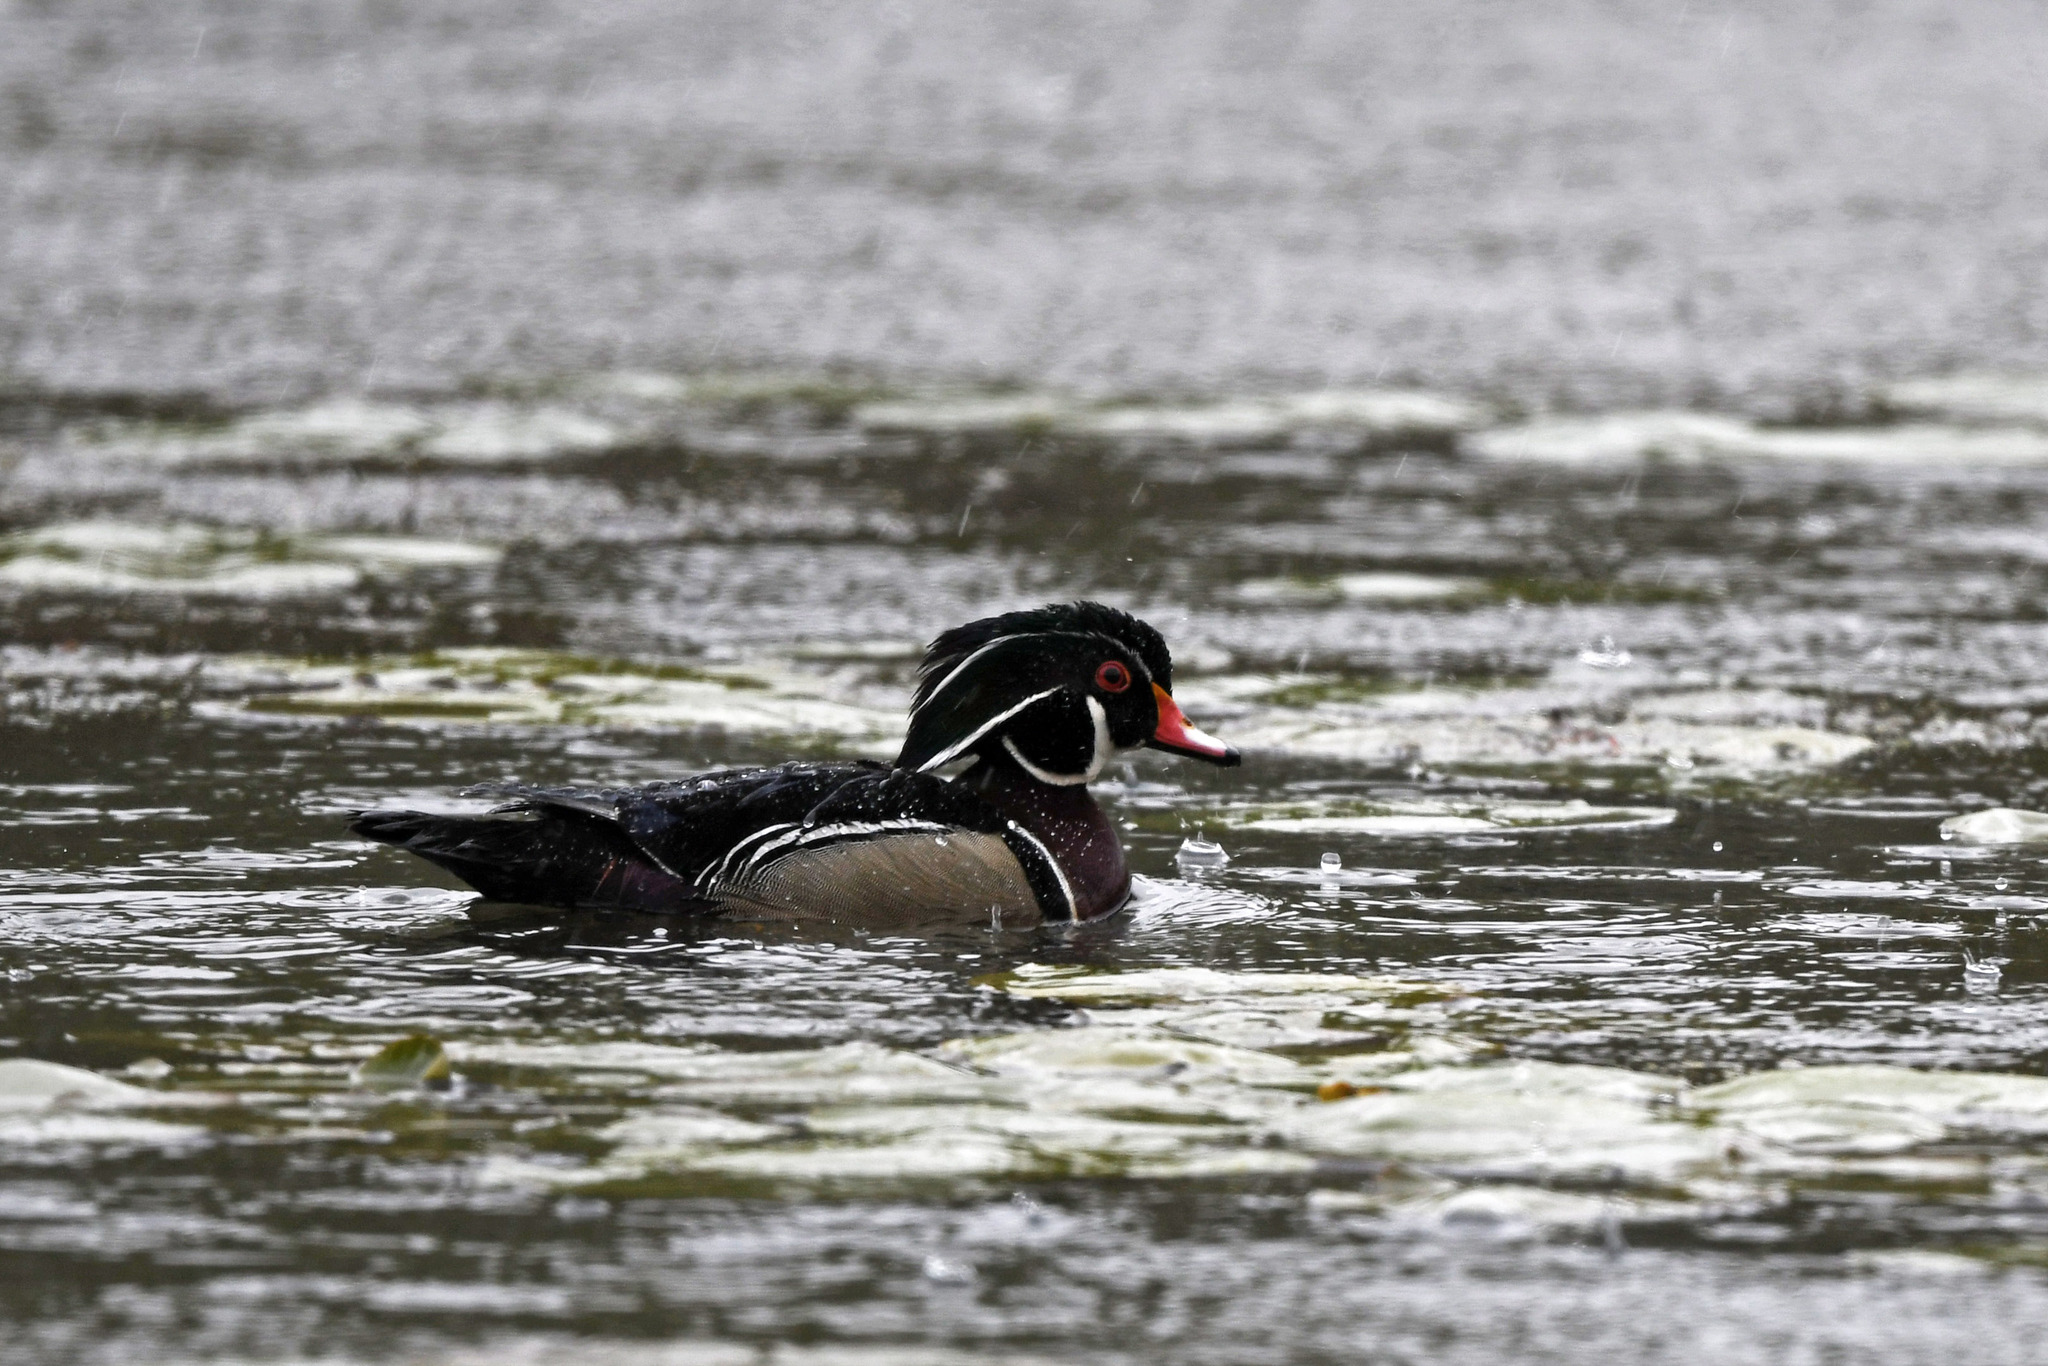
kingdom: Animalia
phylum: Chordata
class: Aves
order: Anseriformes
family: Anatidae
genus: Aix
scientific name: Aix sponsa
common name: Wood duck
